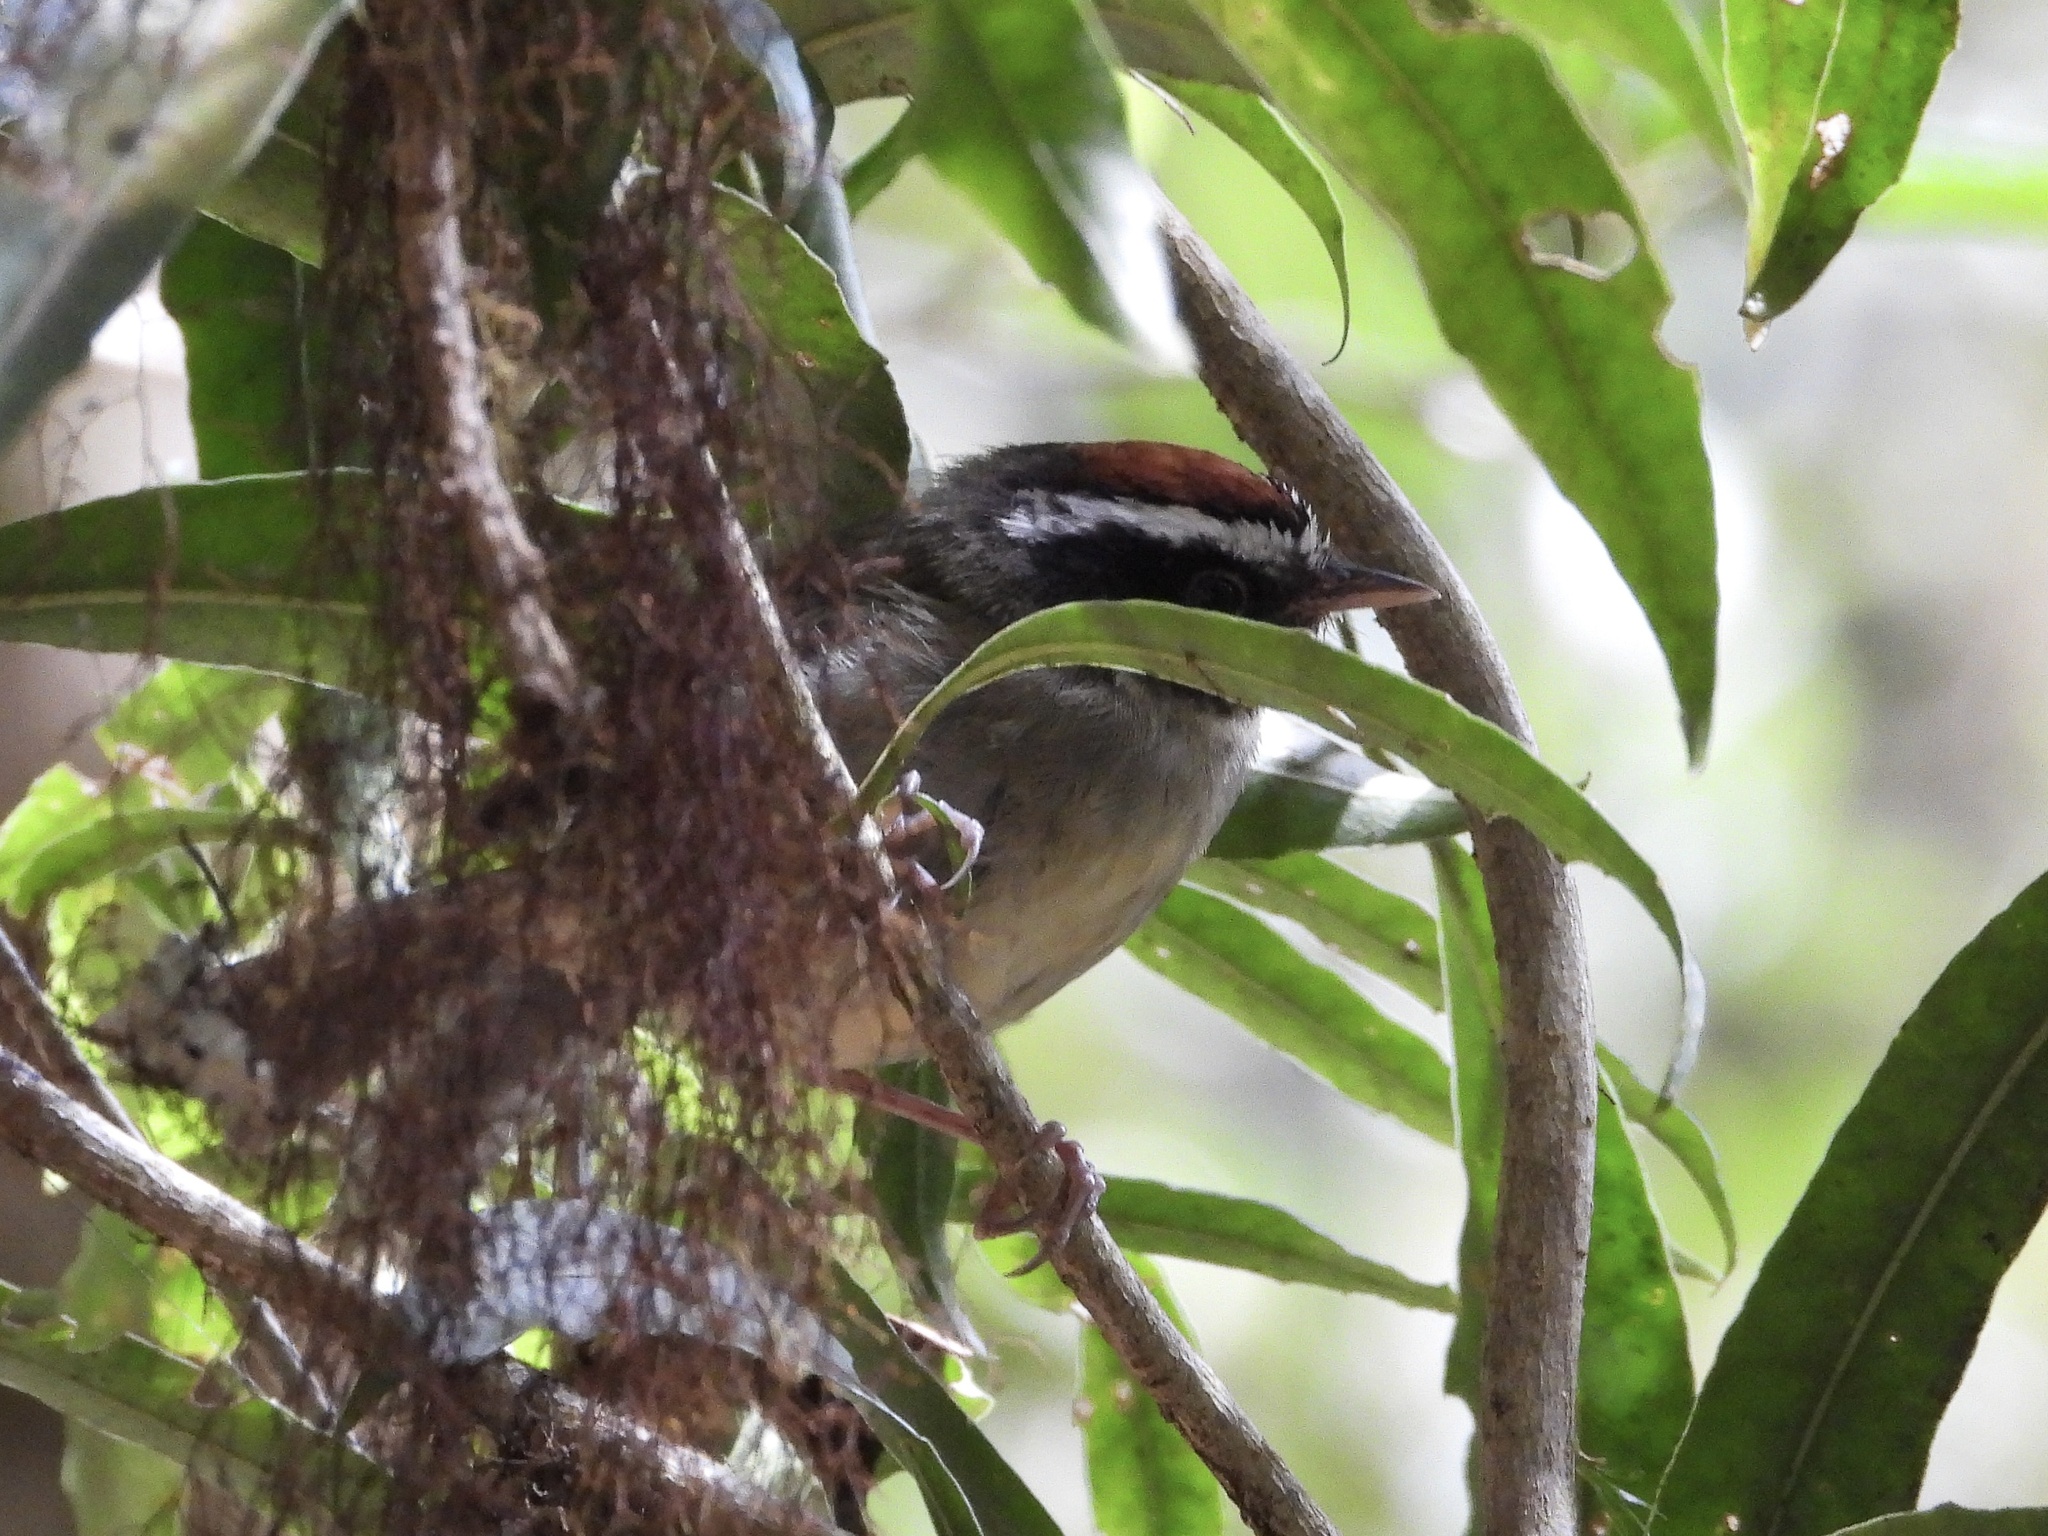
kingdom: Animalia
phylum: Chordata
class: Aves
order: Passeriformes
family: Parulidae
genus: Basileuterus
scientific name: Basileuterus melanogenys
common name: Black-cheeked warbler
